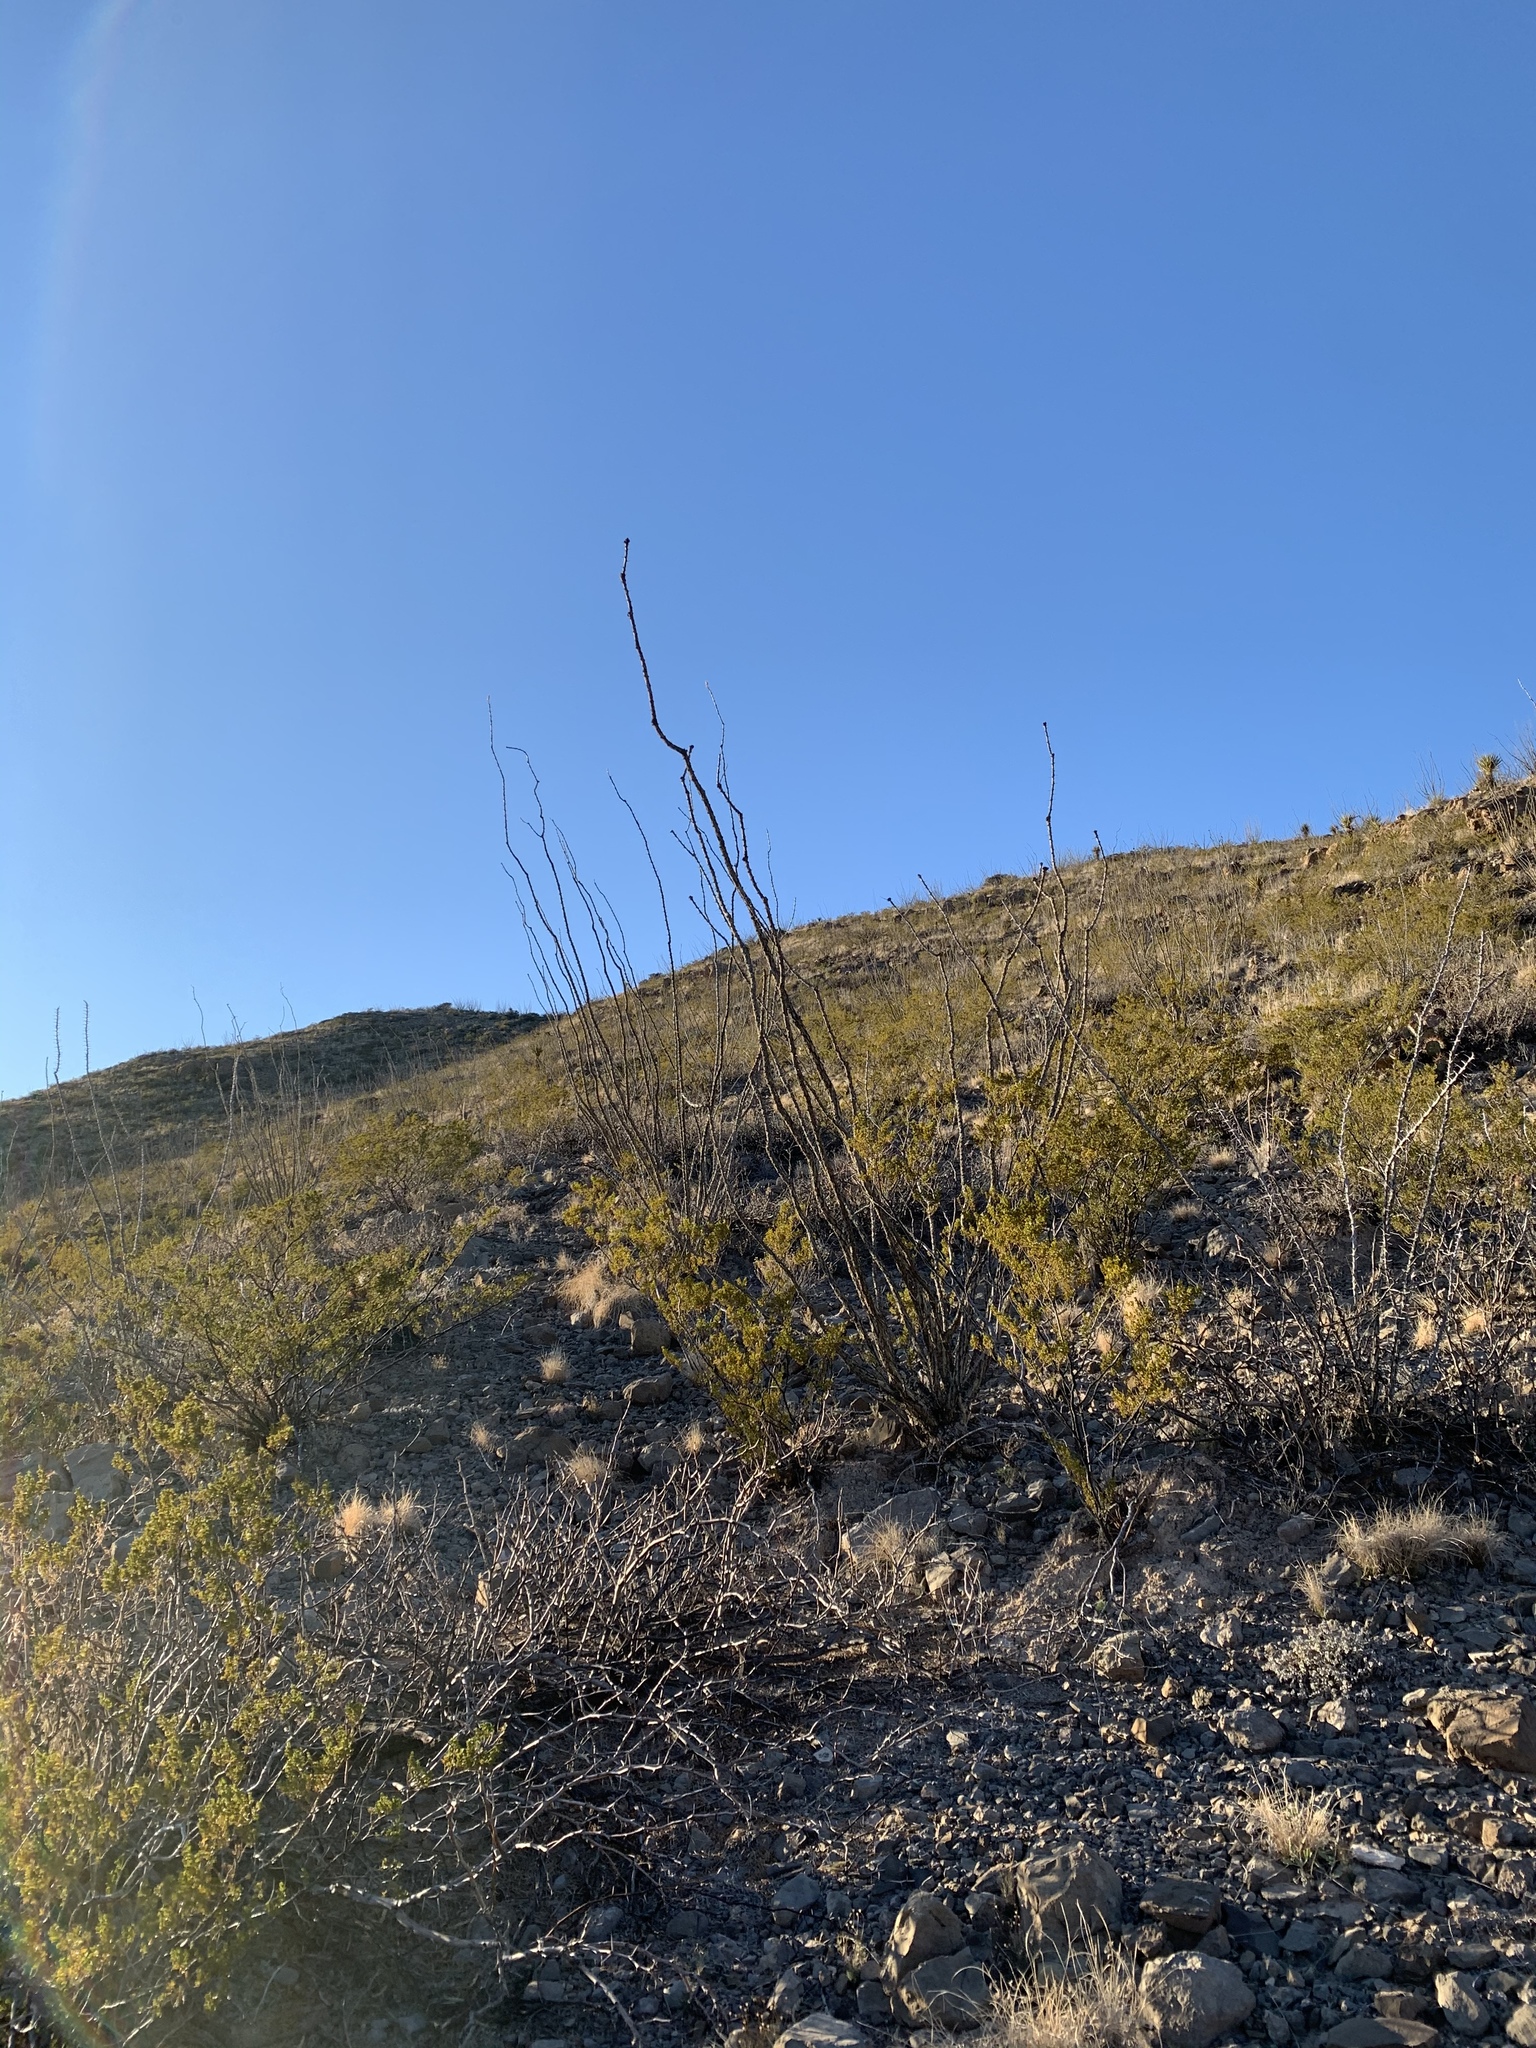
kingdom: Plantae
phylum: Tracheophyta
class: Magnoliopsida
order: Ericales
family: Fouquieriaceae
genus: Fouquieria
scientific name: Fouquieria splendens
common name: Vine-cactus
